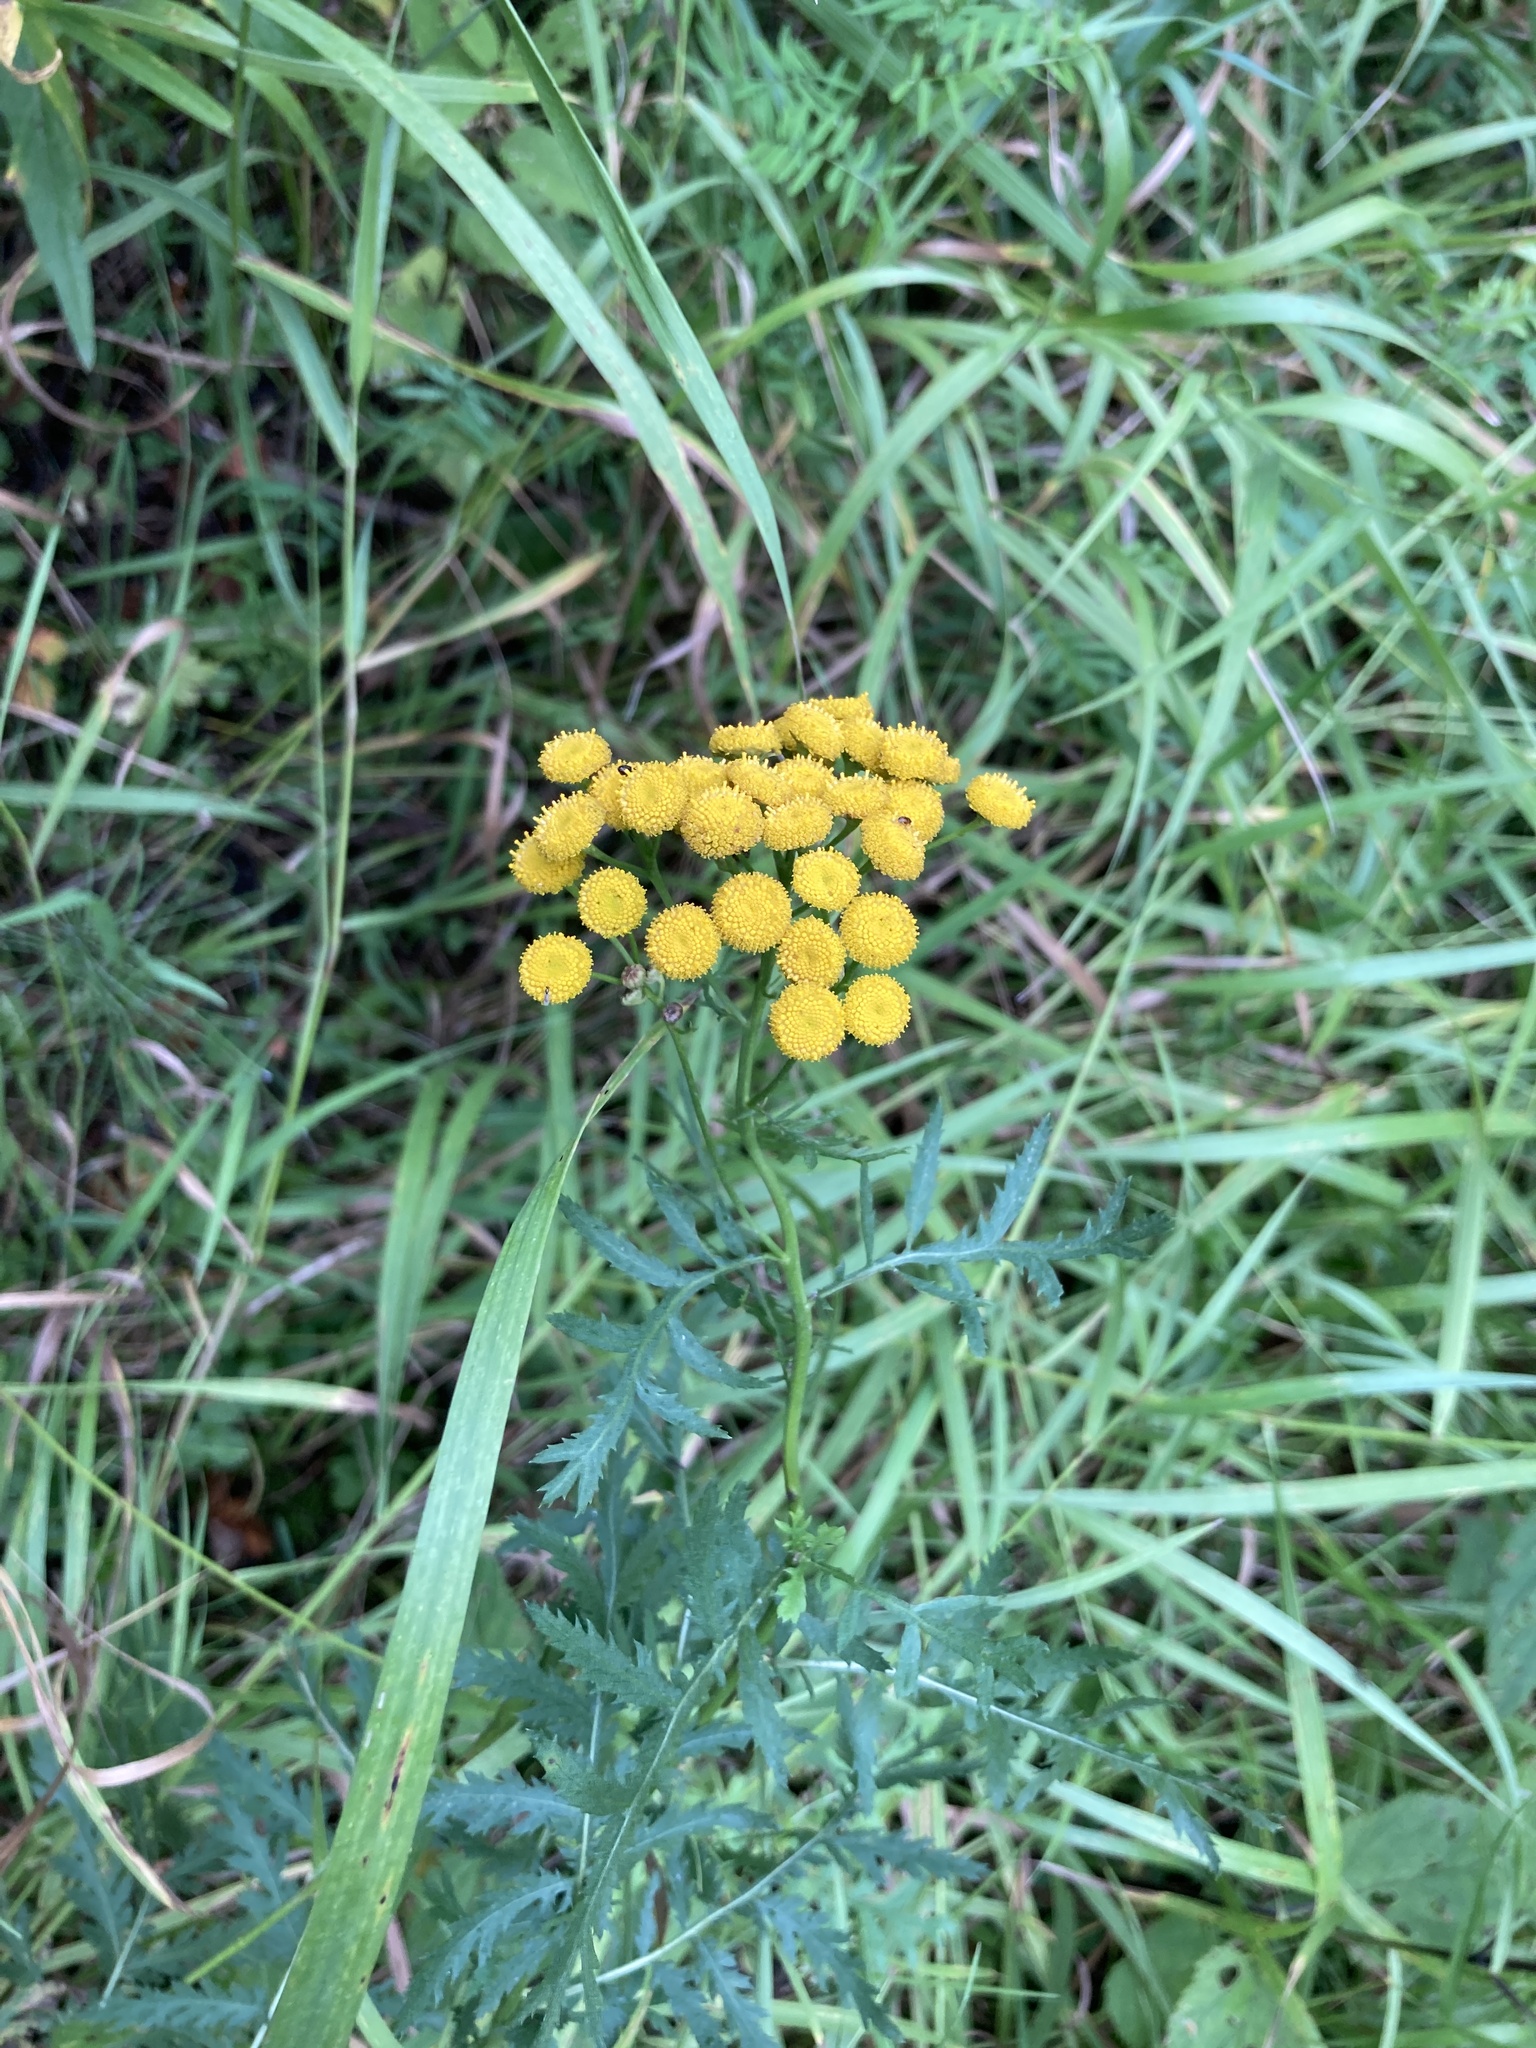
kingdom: Plantae
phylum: Tracheophyta
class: Magnoliopsida
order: Asterales
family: Asteraceae
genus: Tanacetum
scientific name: Tanacetum vulgare
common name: Common tansy
